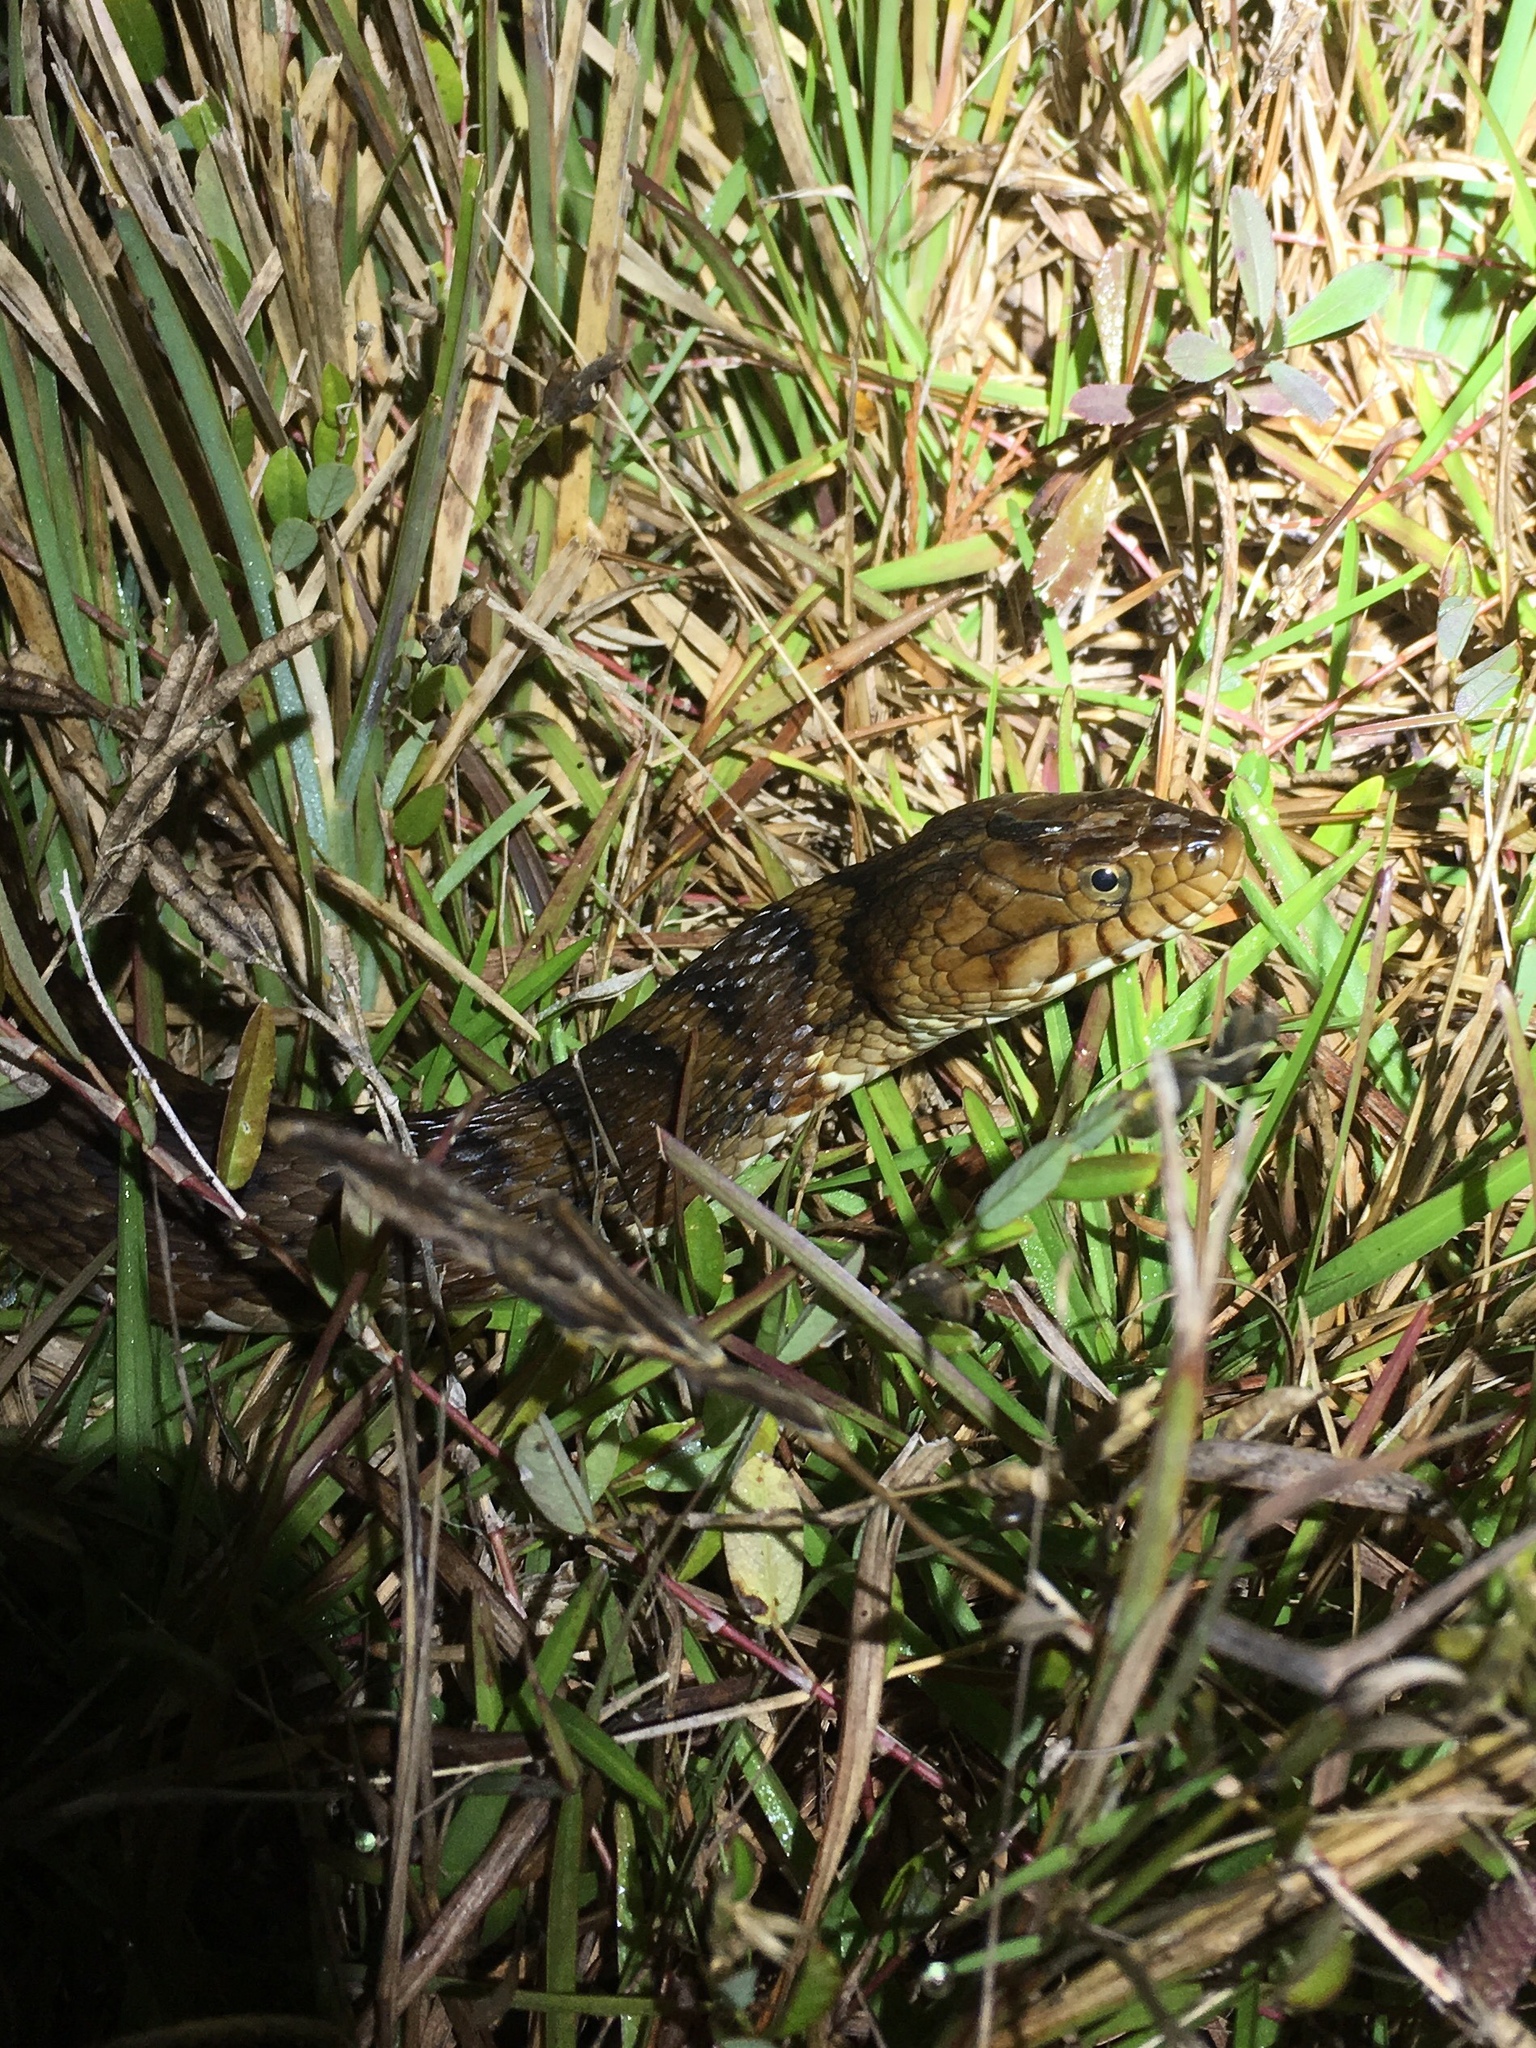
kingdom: Animalia
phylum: Chordata
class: Squamata
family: Colubridae
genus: Nerodia
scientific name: Nerodia fasciata
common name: Southern water snake
